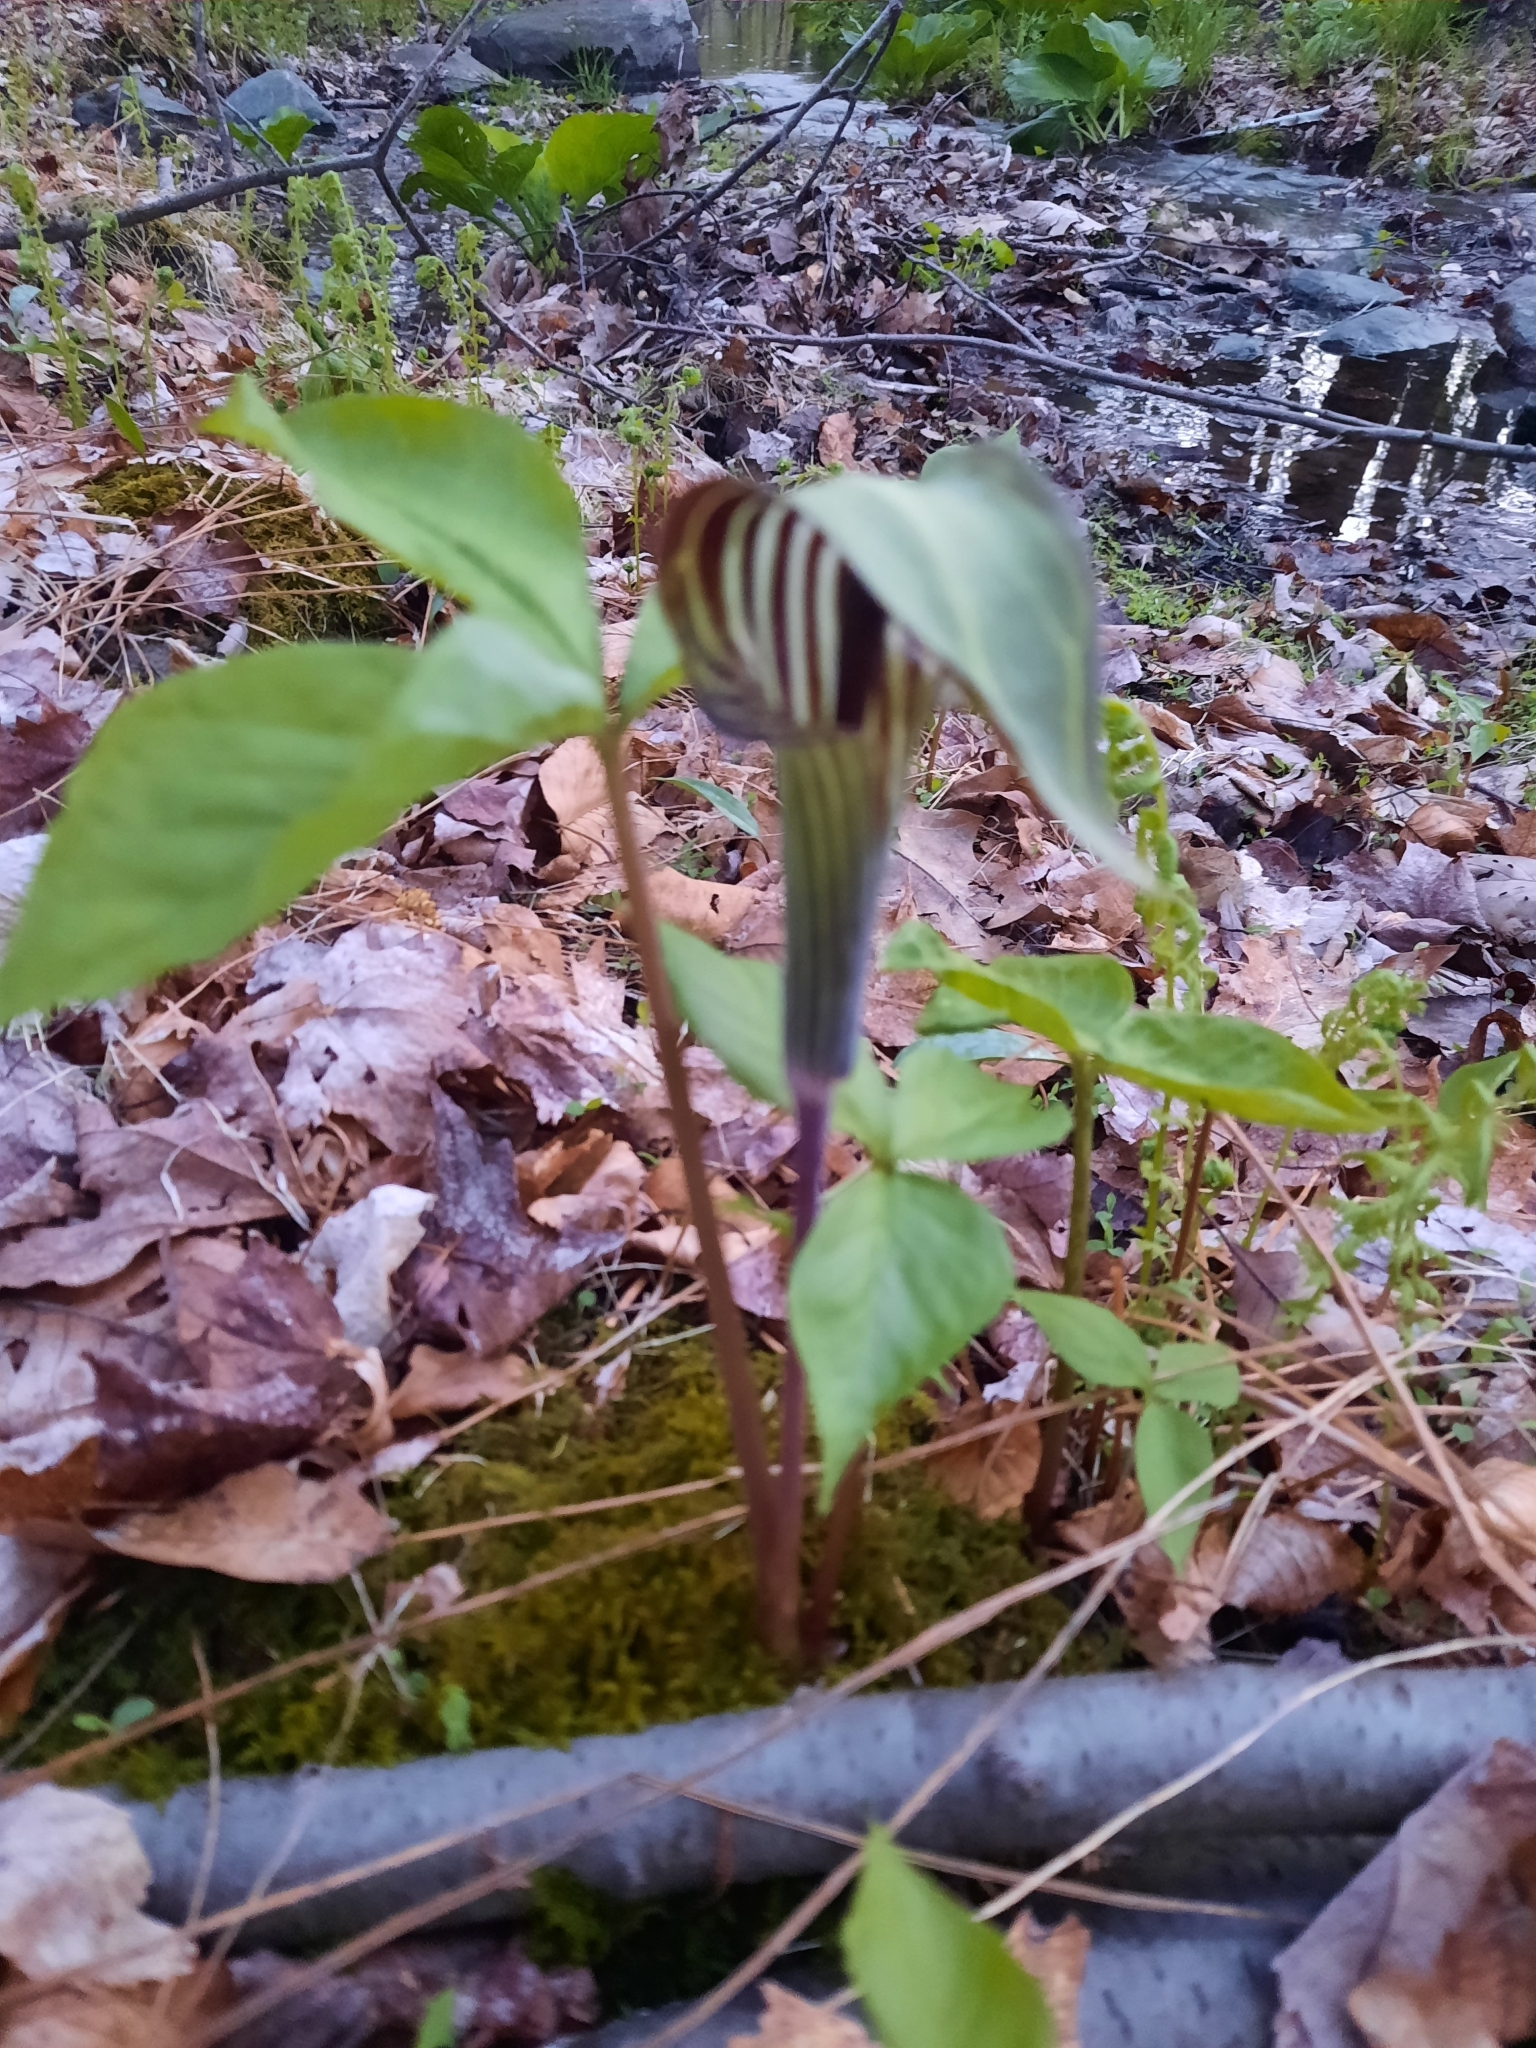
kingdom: Plantae
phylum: Tracheophyta
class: Liliopsida
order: Alismatales
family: Araceae
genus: Arisaema
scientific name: Arisaema triphyllum
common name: Jack-in-the-pulpit
